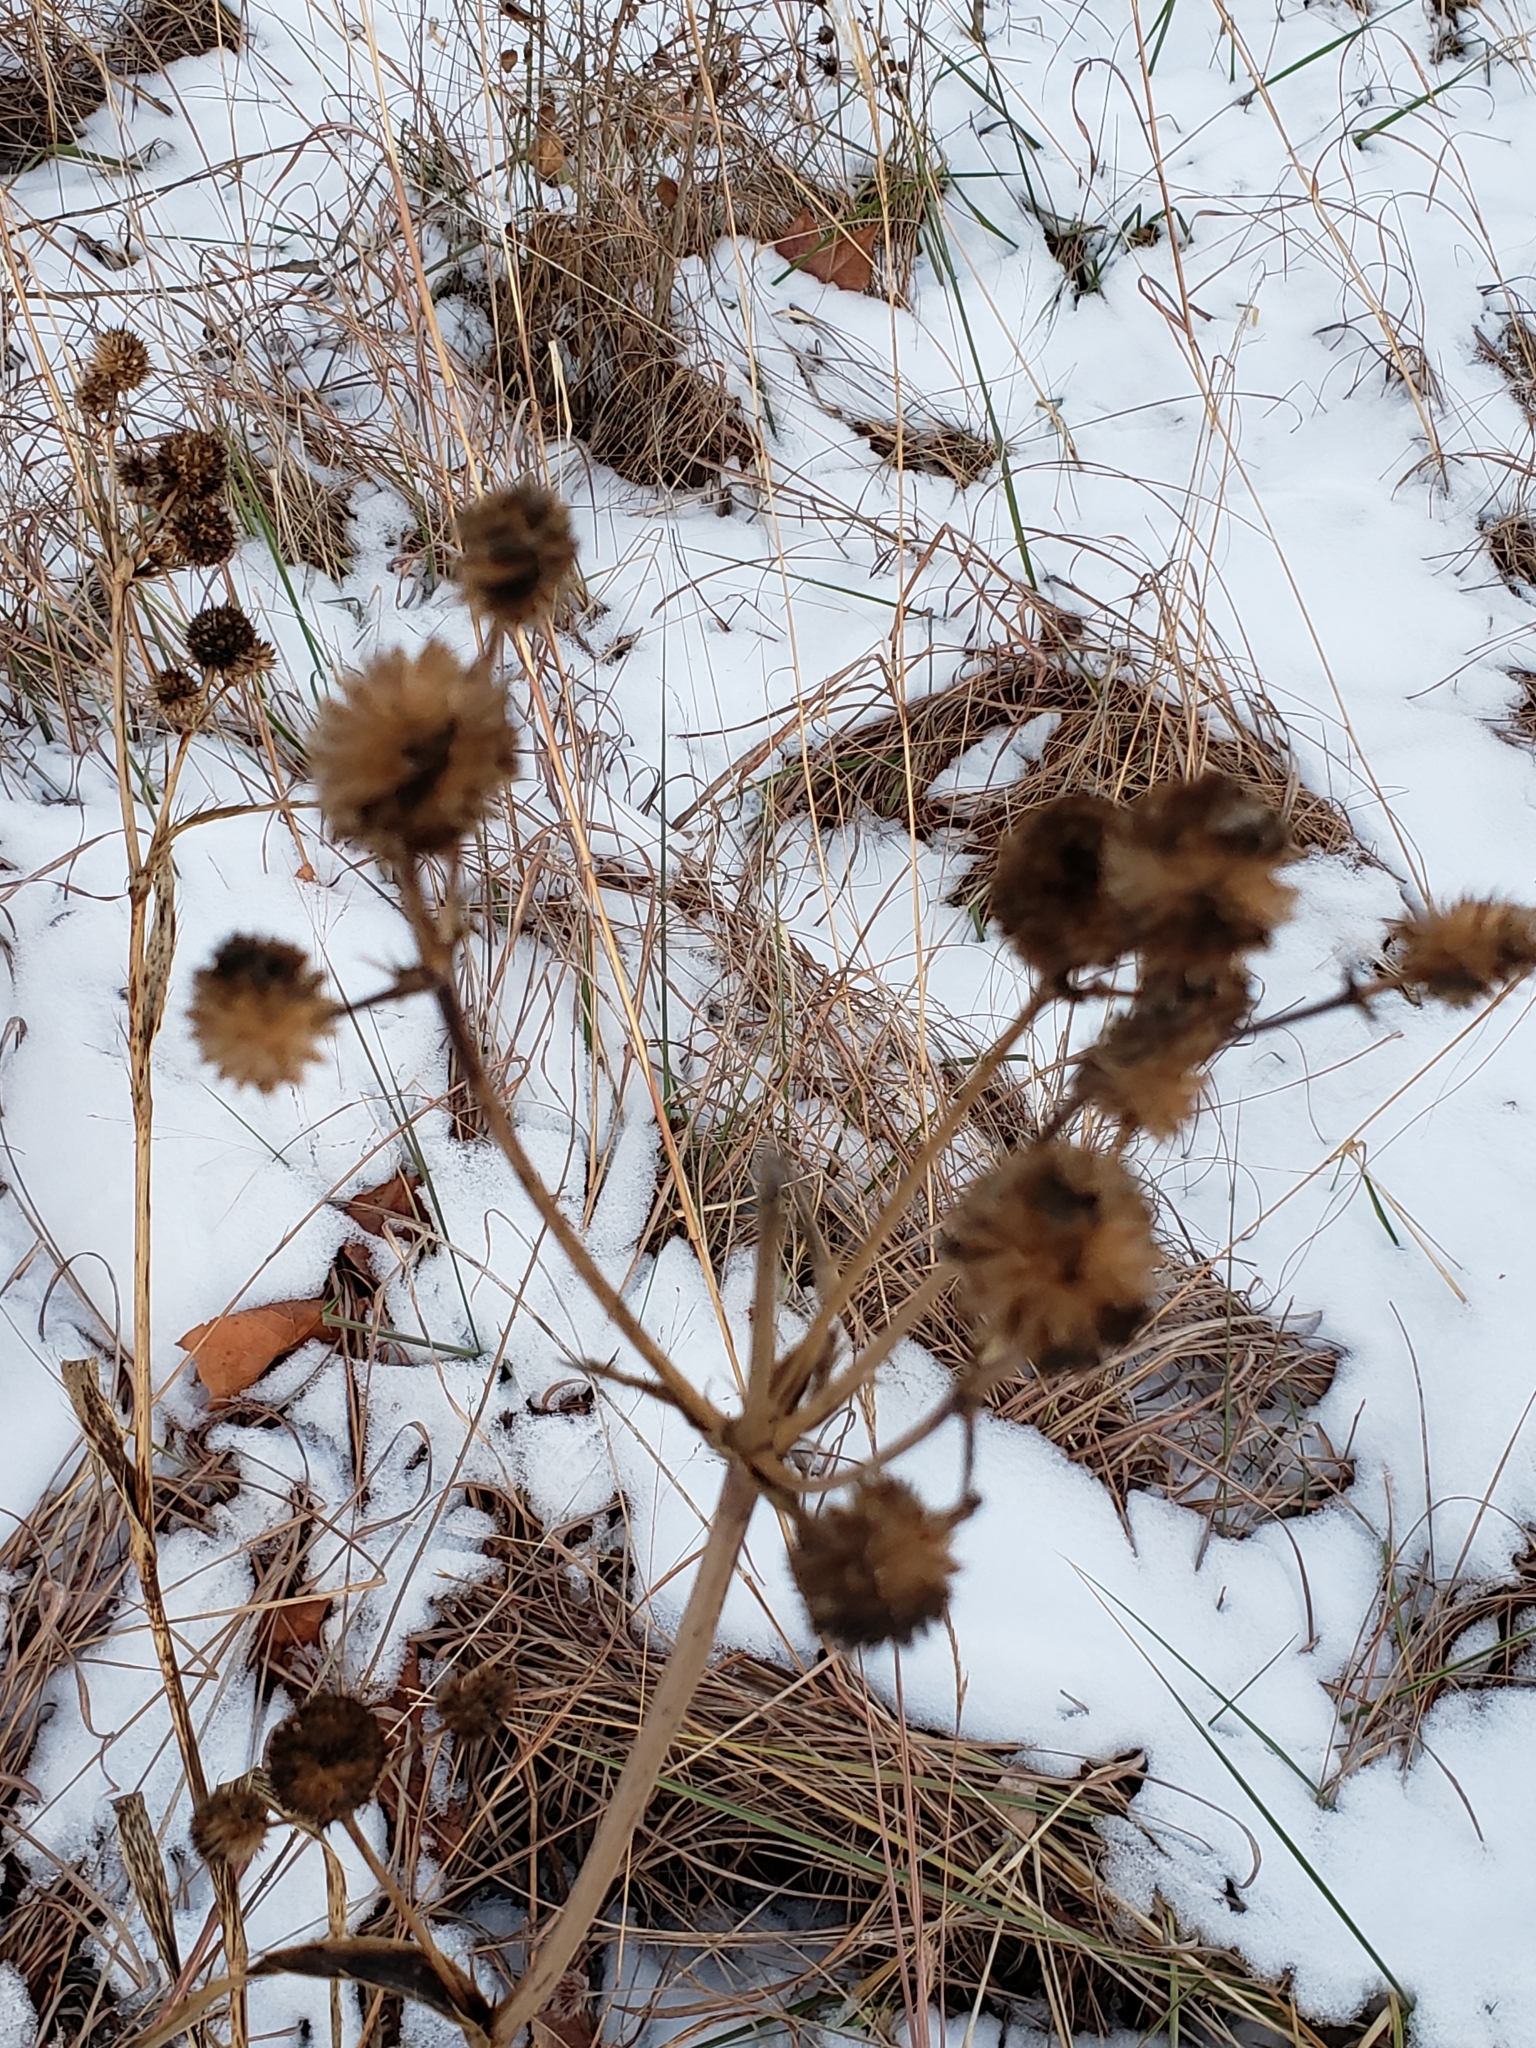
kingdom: Plantae
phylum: Tracheophyta
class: Magnoliopsida
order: Apiales
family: Apiaceae
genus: Eryngium
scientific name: Eryngium yuccifolium
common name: Button eryngo
